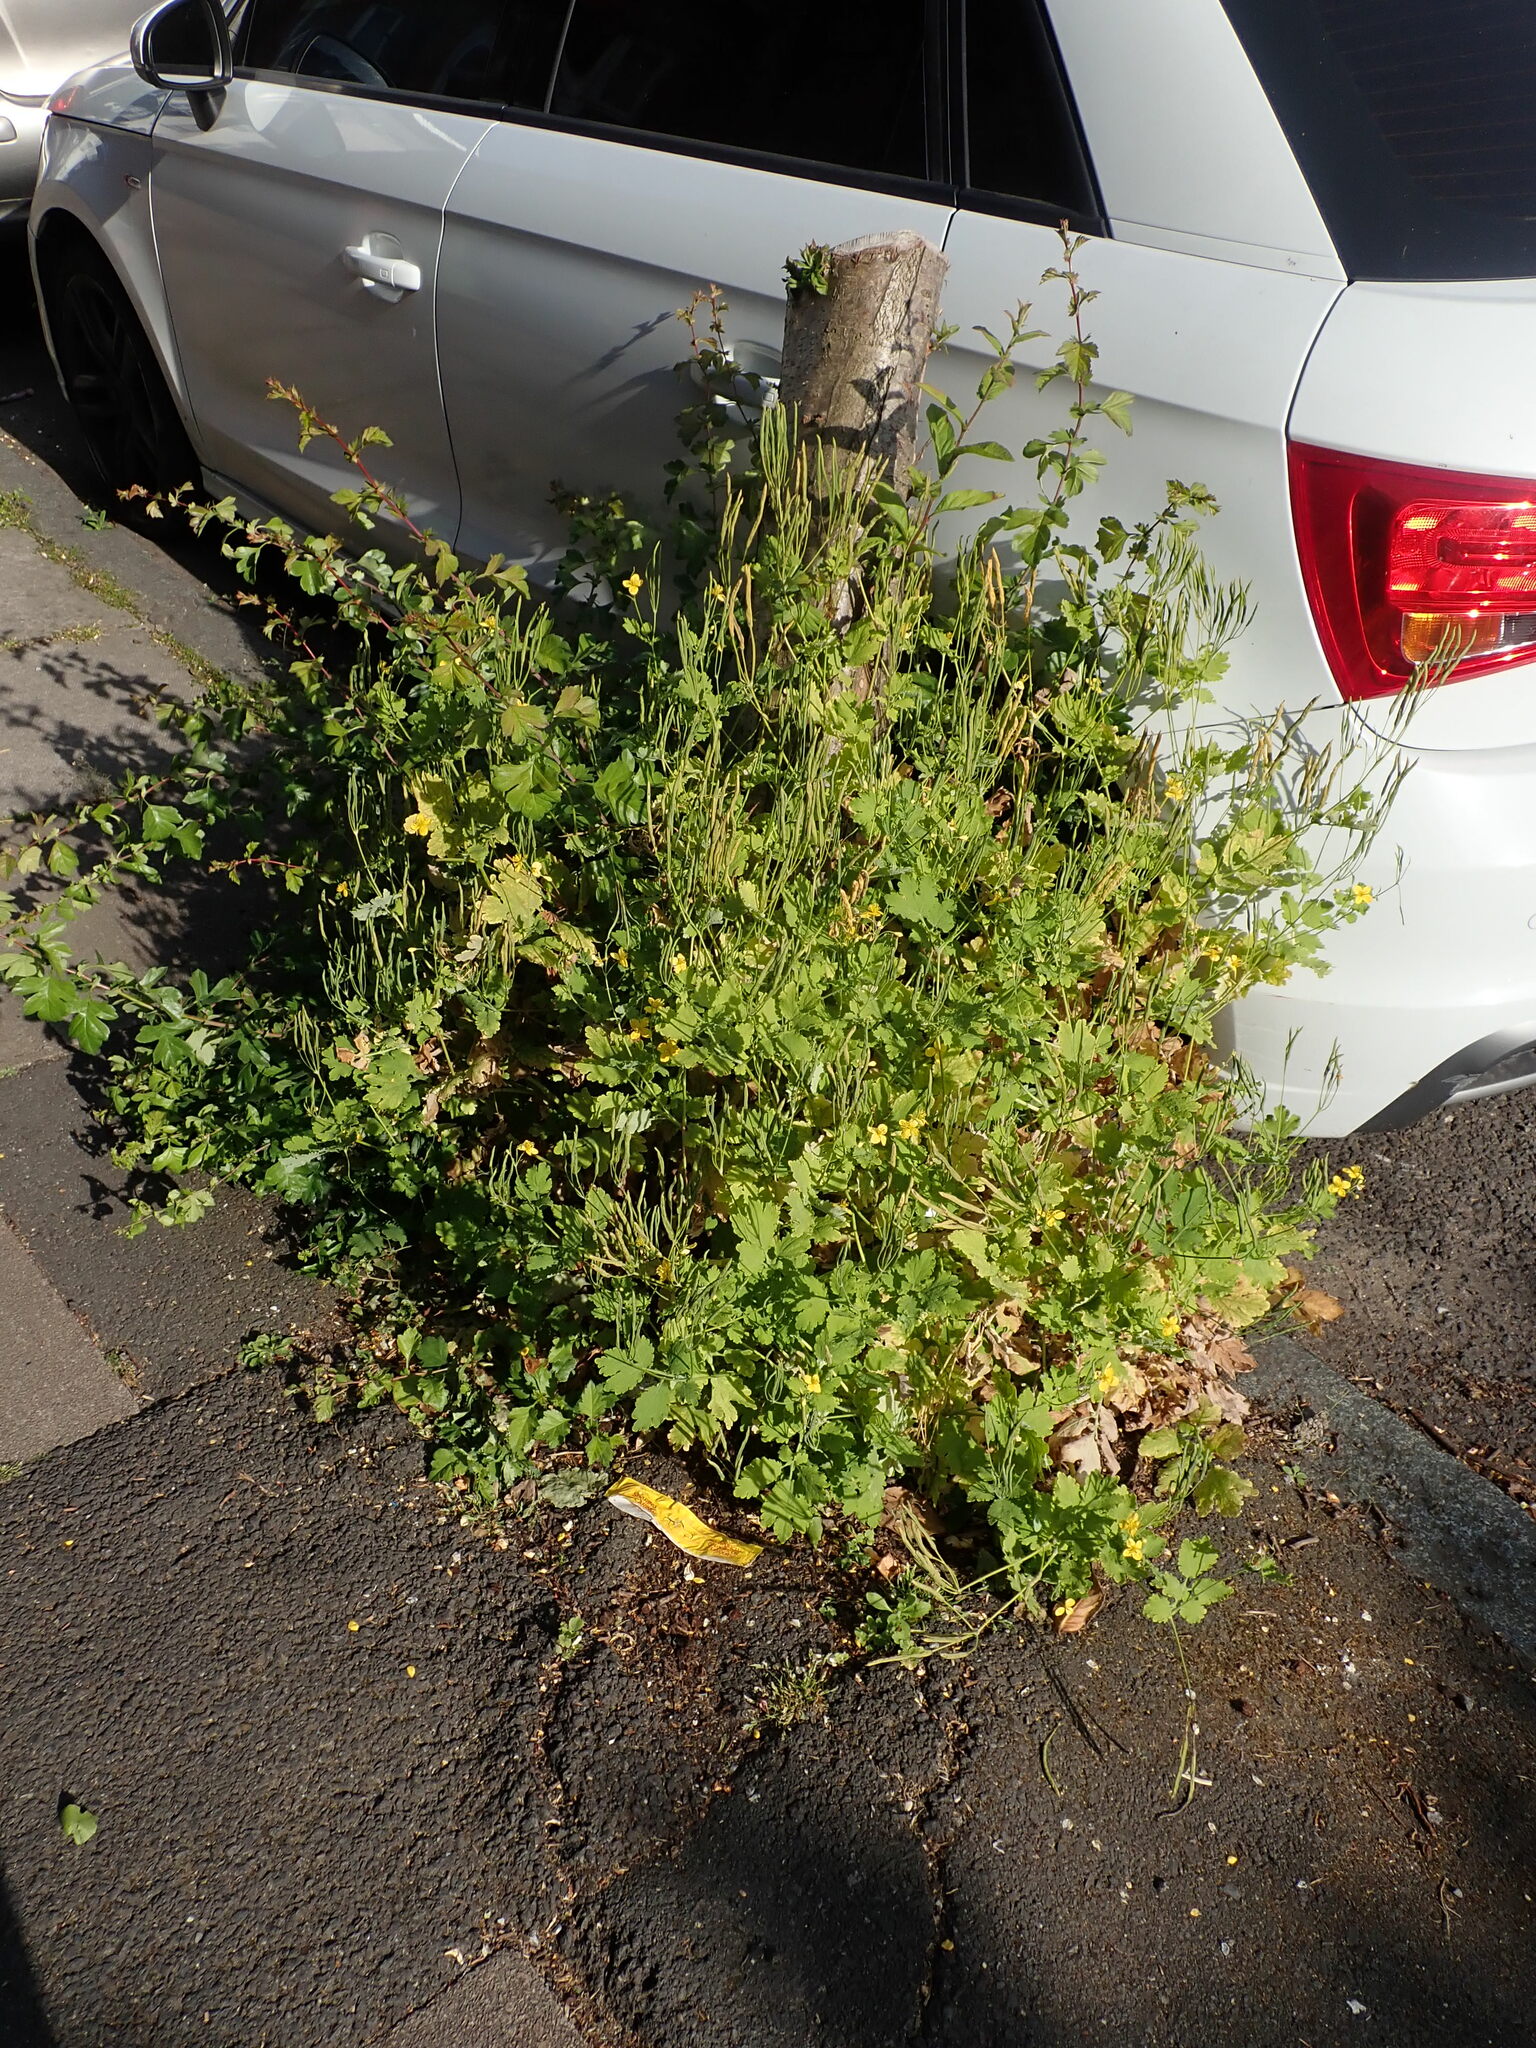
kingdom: Plantae
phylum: Tracheophyta
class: Magnoliopsida
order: Ranunculales
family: Papaveraceae
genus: Chelidonium
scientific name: Chelidonium majus
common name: Greater celandine
